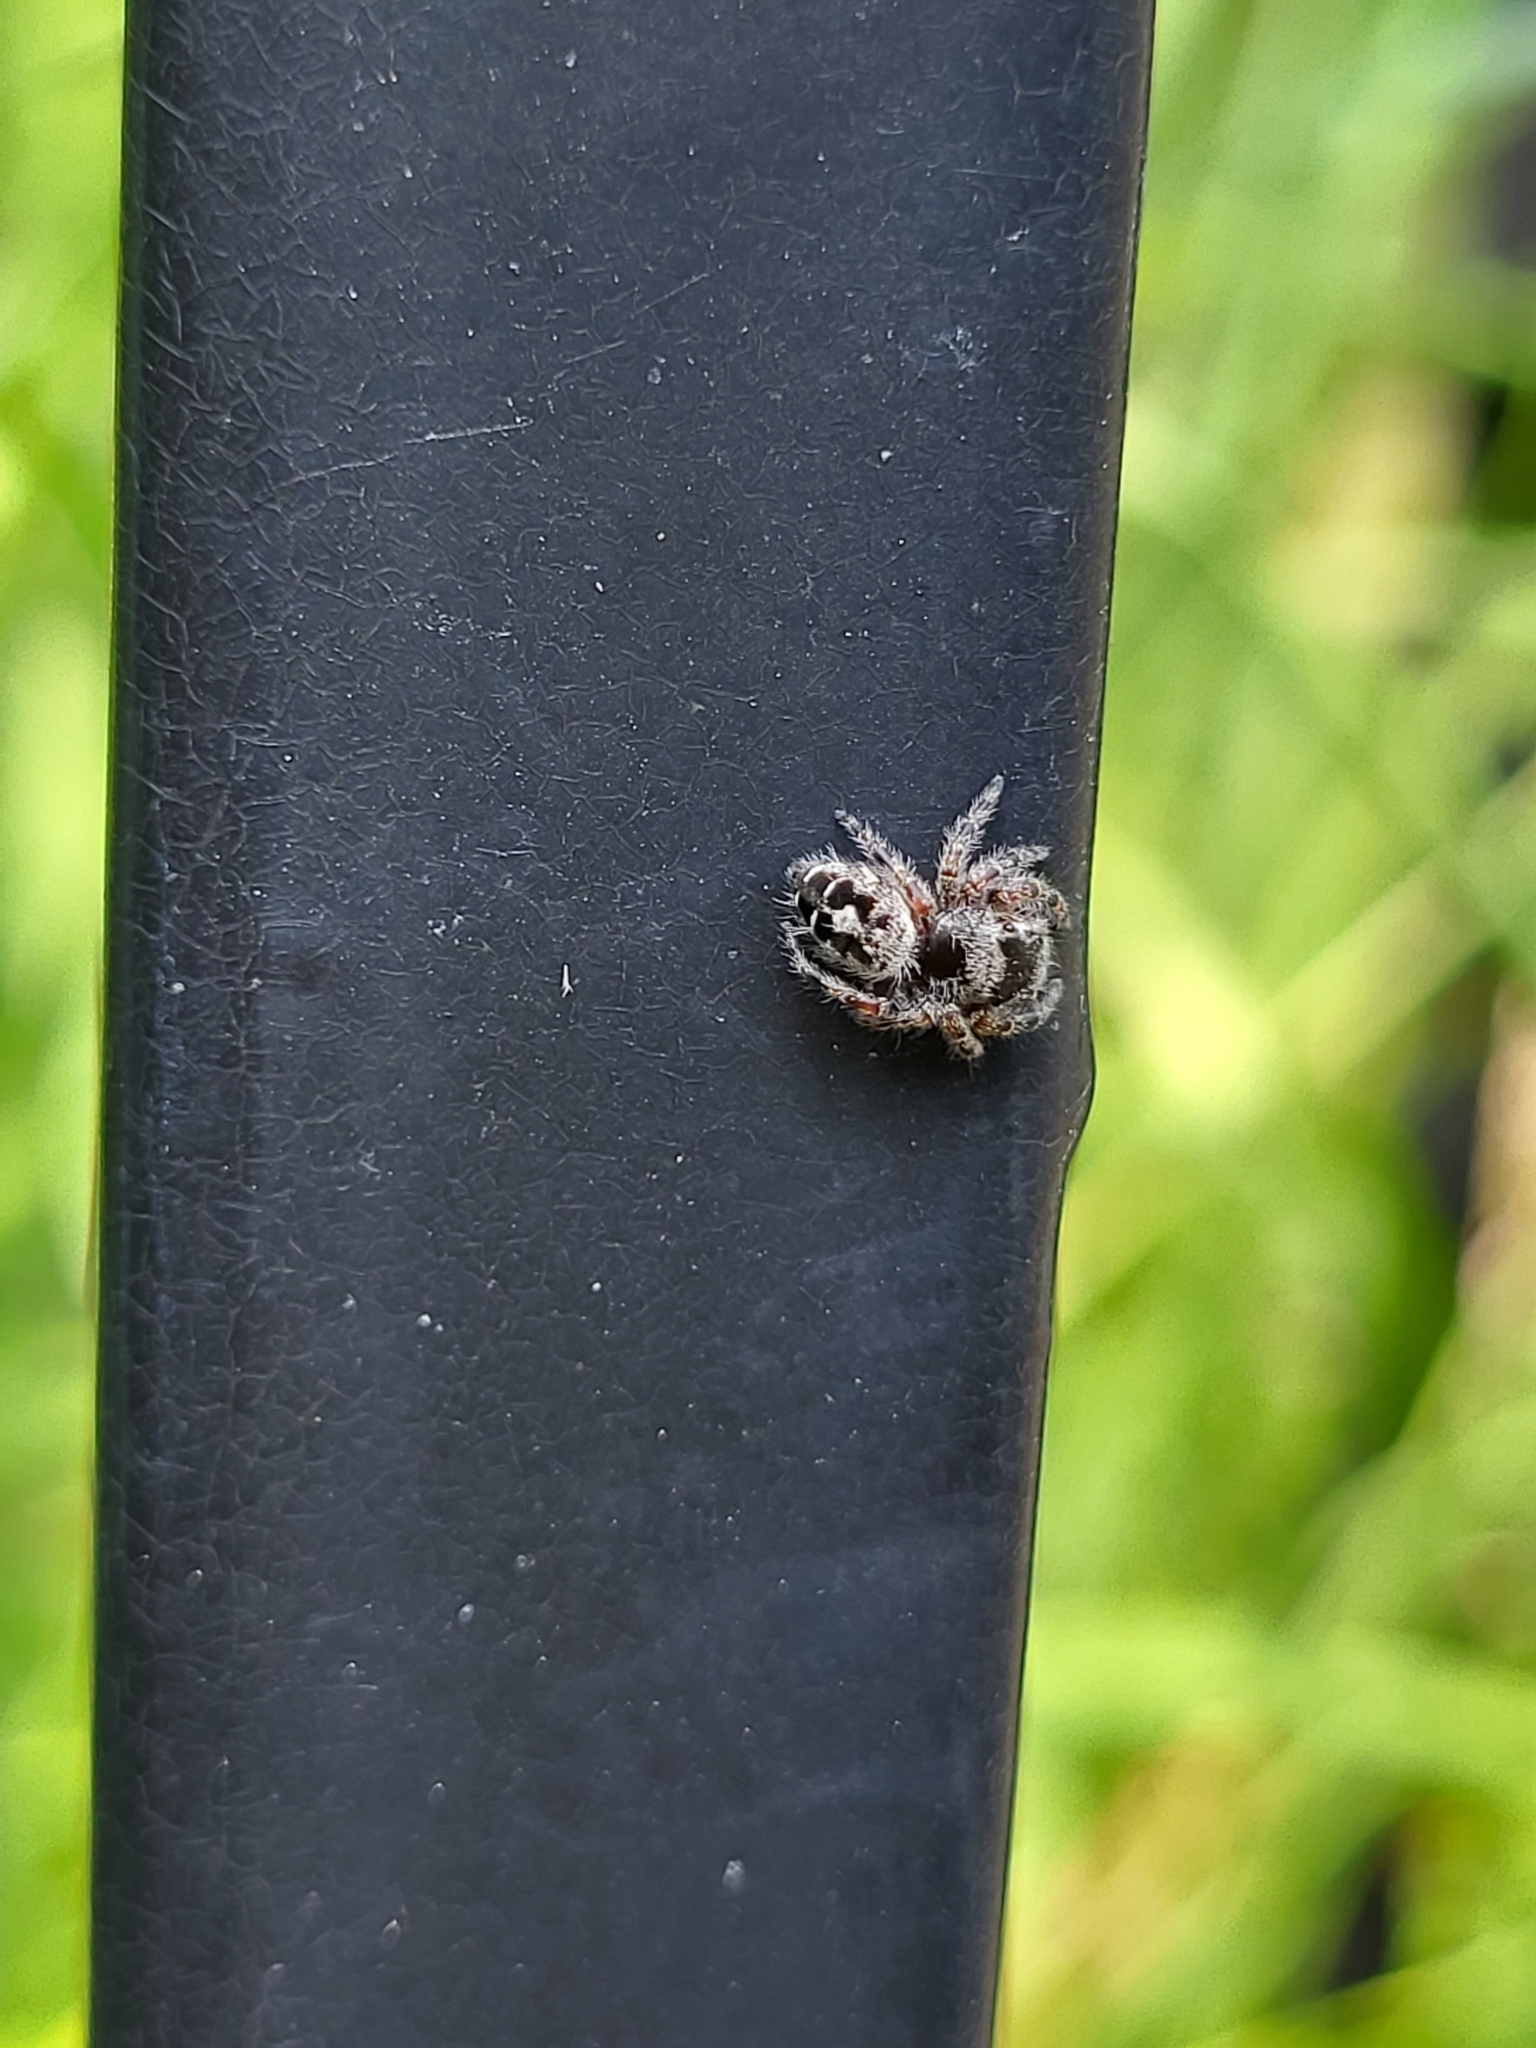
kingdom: Animalia
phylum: Arthropoda
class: Arachnida
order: Araneae
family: Salticidae
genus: Phidippus
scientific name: Phidippus putnami
